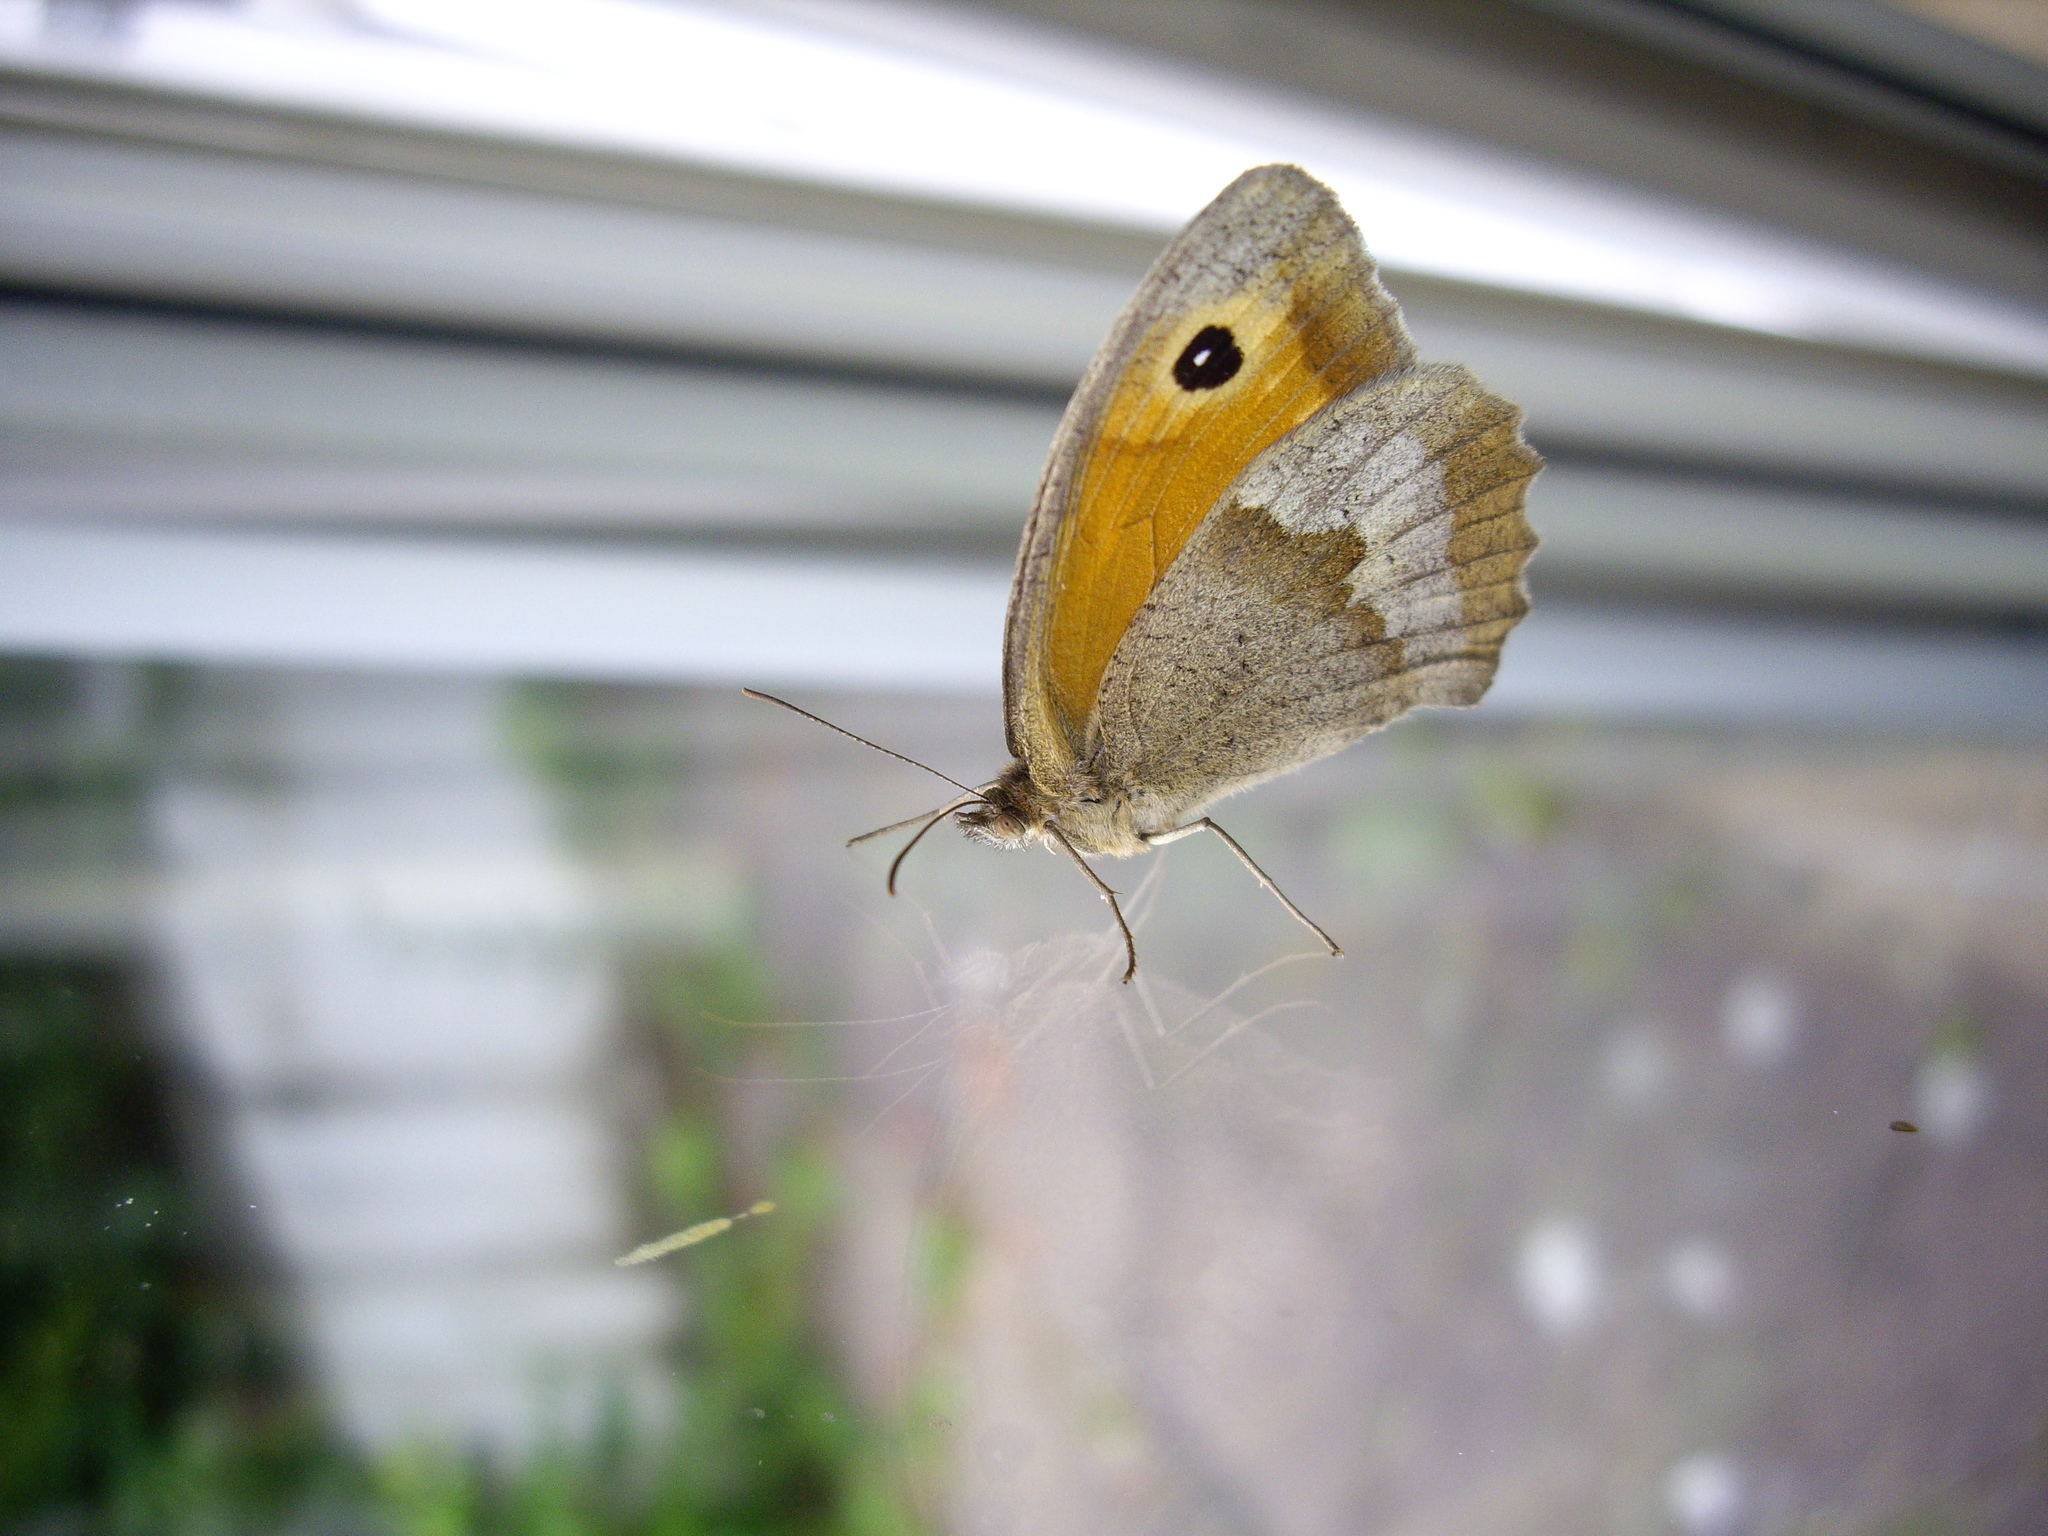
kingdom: Animalia
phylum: Arthropoda
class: Insecta
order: Lepidoptera
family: Nymphalidae
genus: Maniola
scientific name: Maniola jurtina
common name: Meadow brown
